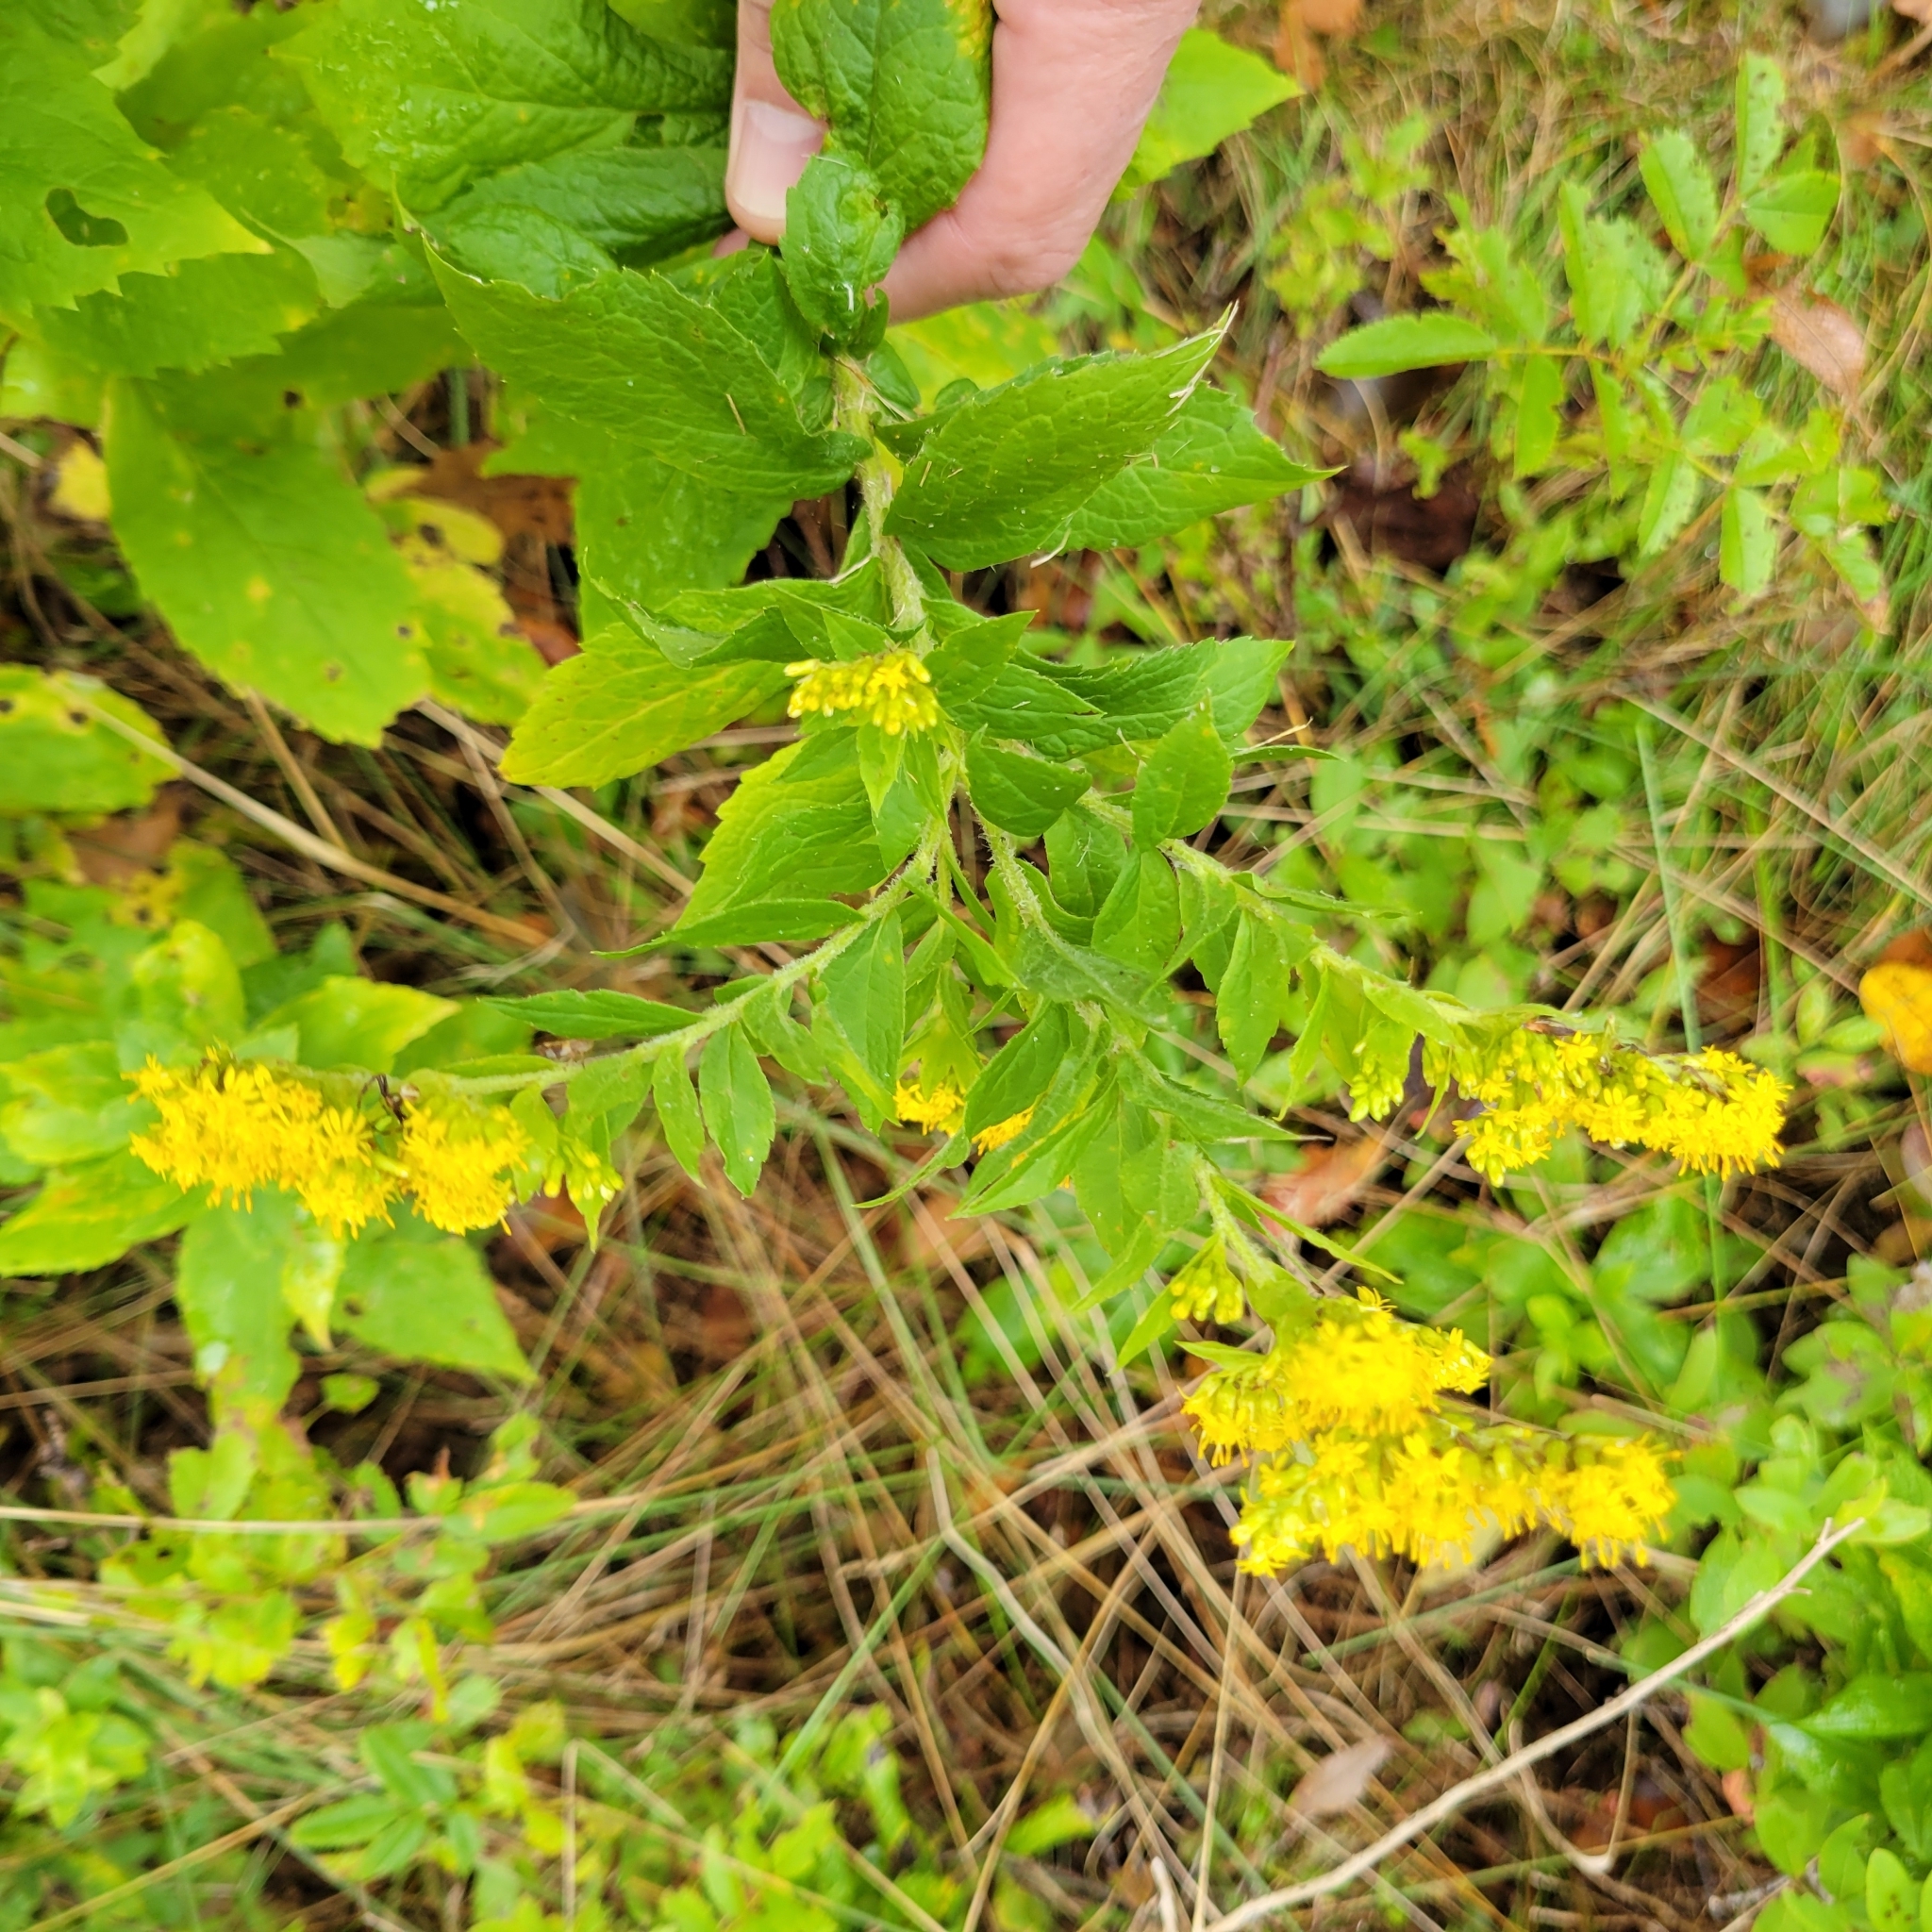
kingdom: Plantae
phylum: Tracheophyta
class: Magnoliopsida
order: Asterales
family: Asteraceae
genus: Solidago
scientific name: Solidago rugosa
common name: Rough-stemmed goldenrod
